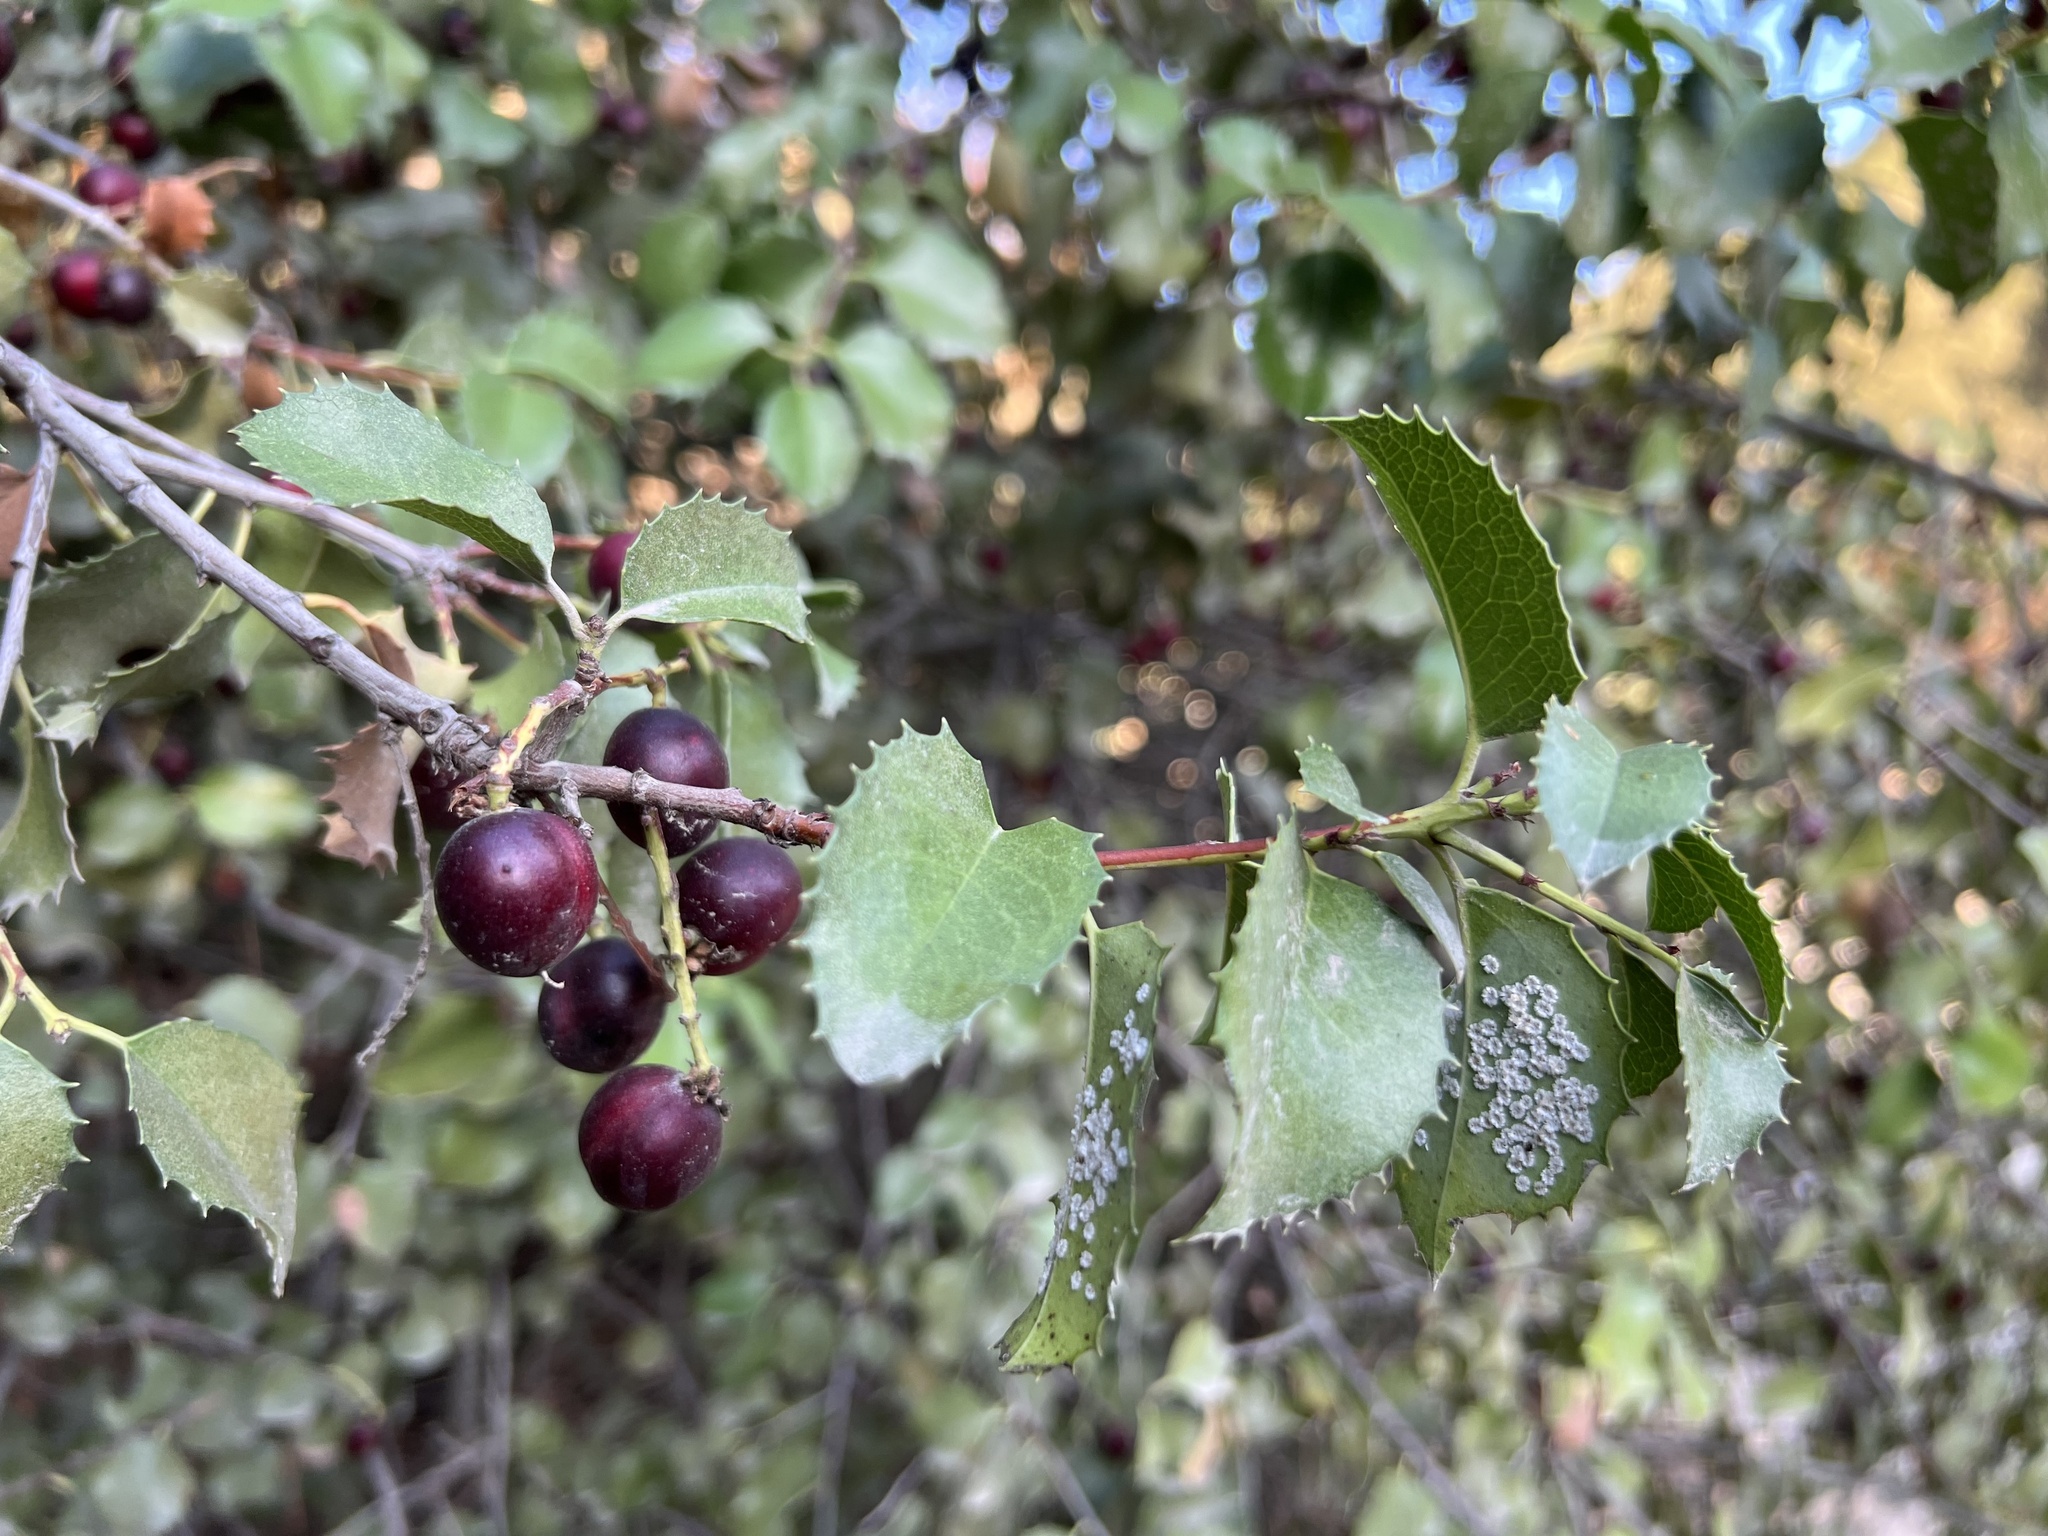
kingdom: Plantae
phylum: Tracheophyta
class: Magnoliopsida
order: Rosales
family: Rosaceae
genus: Prunus
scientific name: Prunus ilicifolia
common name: Hollyleaf cherry
